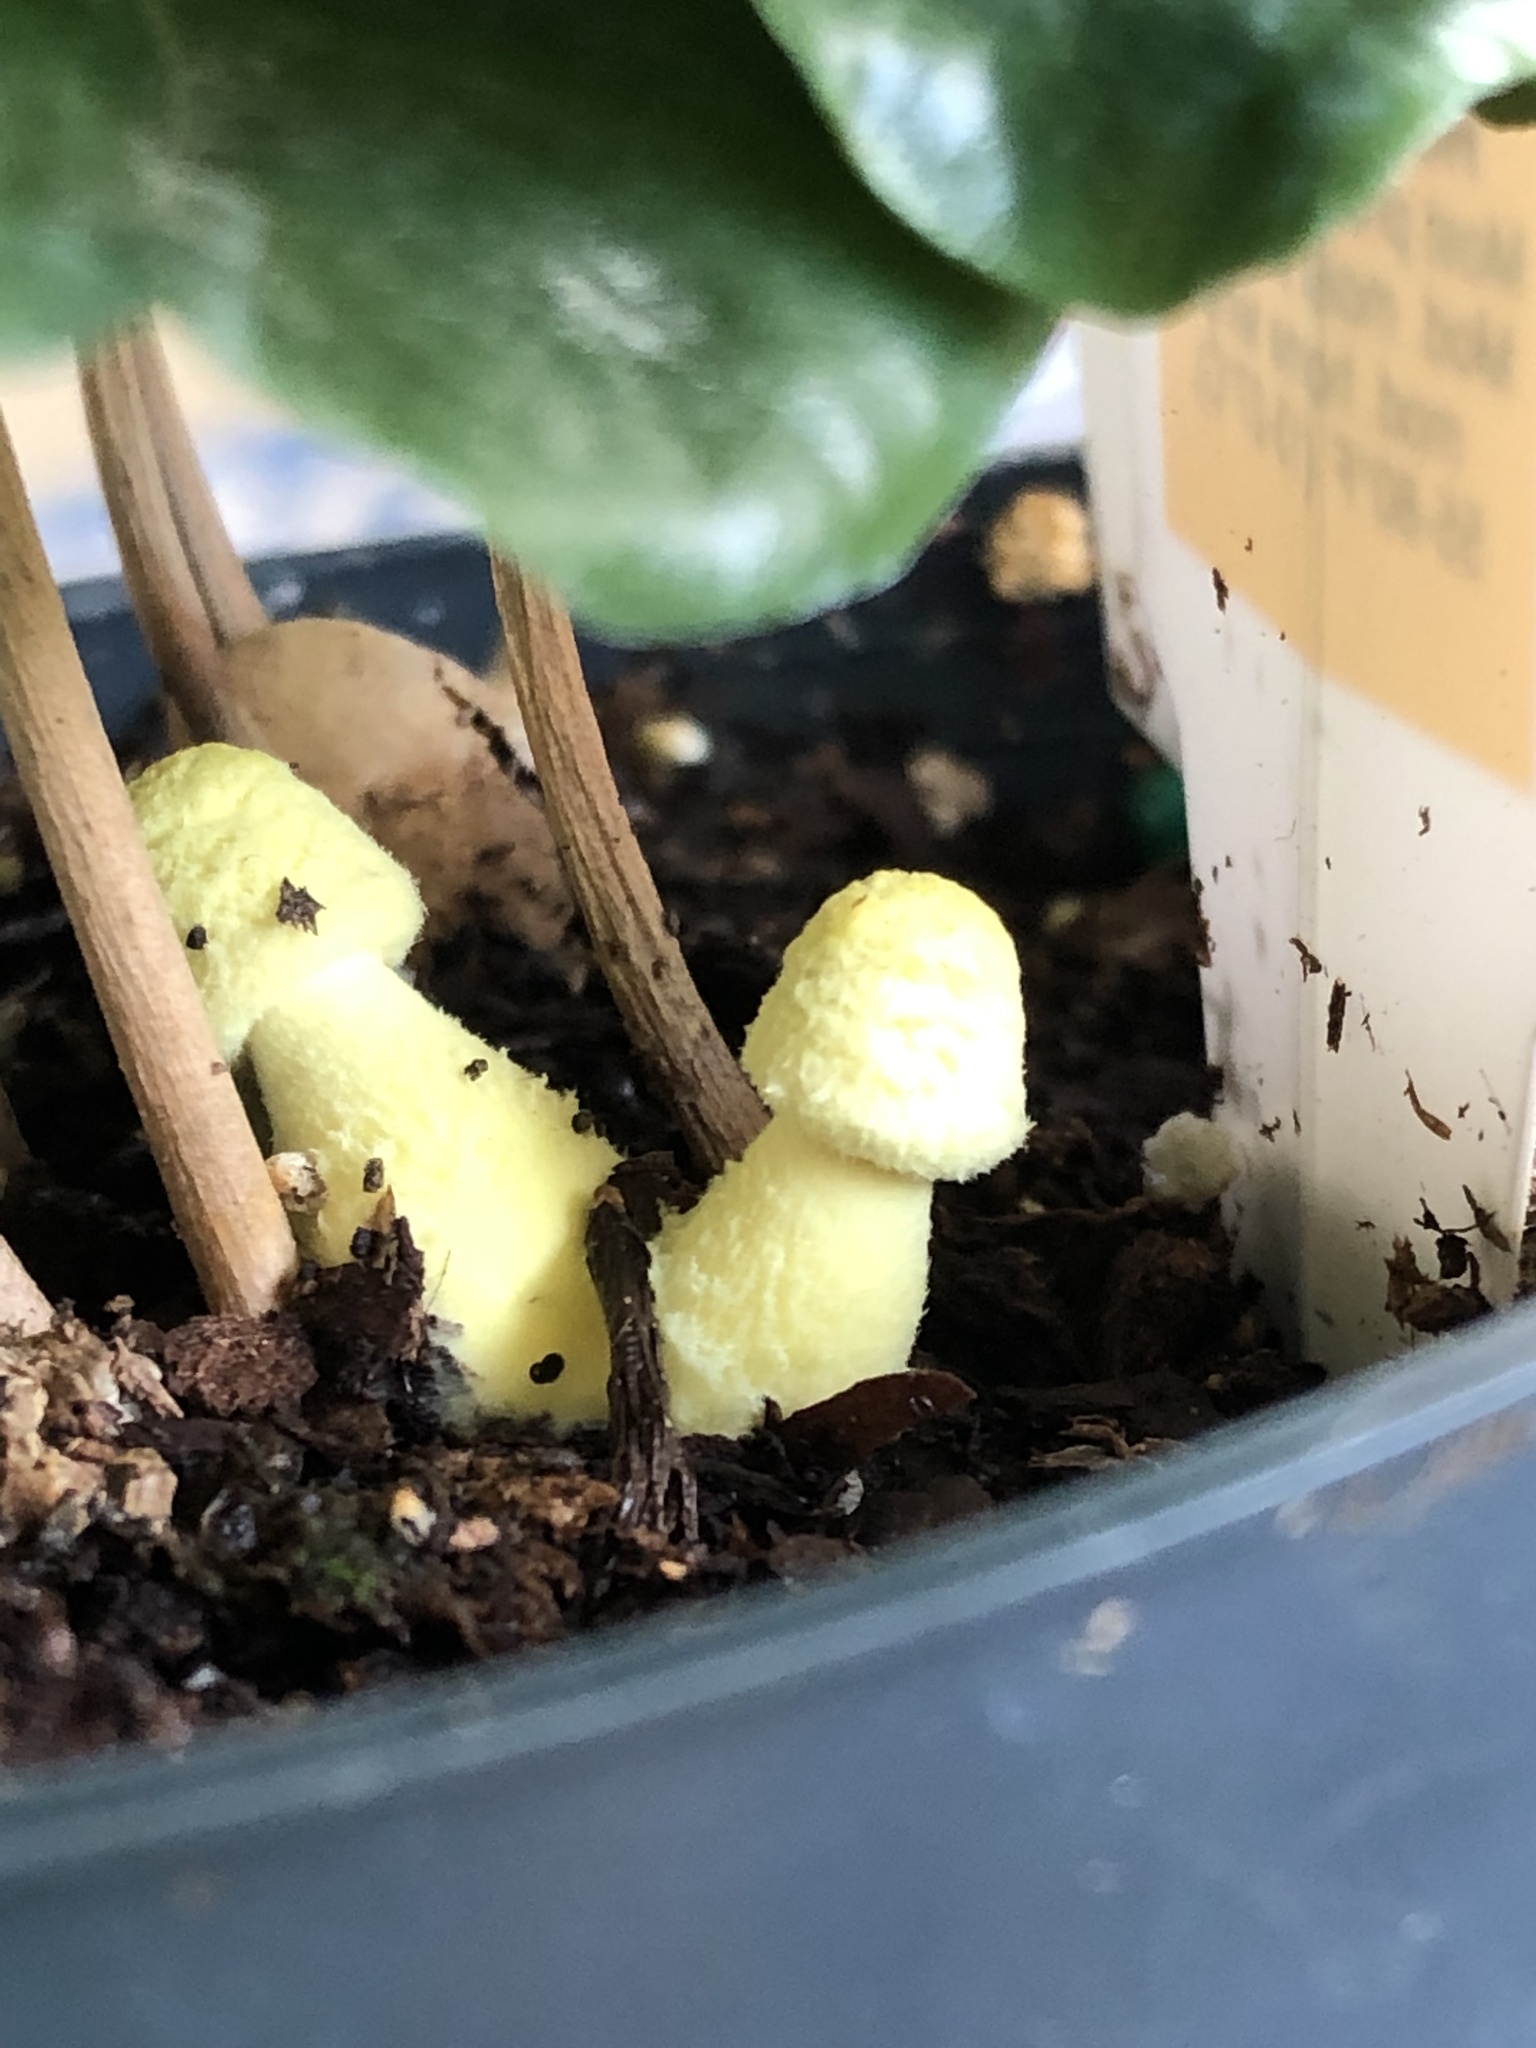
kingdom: Fungi
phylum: Basidiomycota
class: Agaricomycetes
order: Agaricales
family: Agaricaceae
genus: Leucocoprinus
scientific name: Leucocoprinus birnbaumii
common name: Plantpot dapperling
